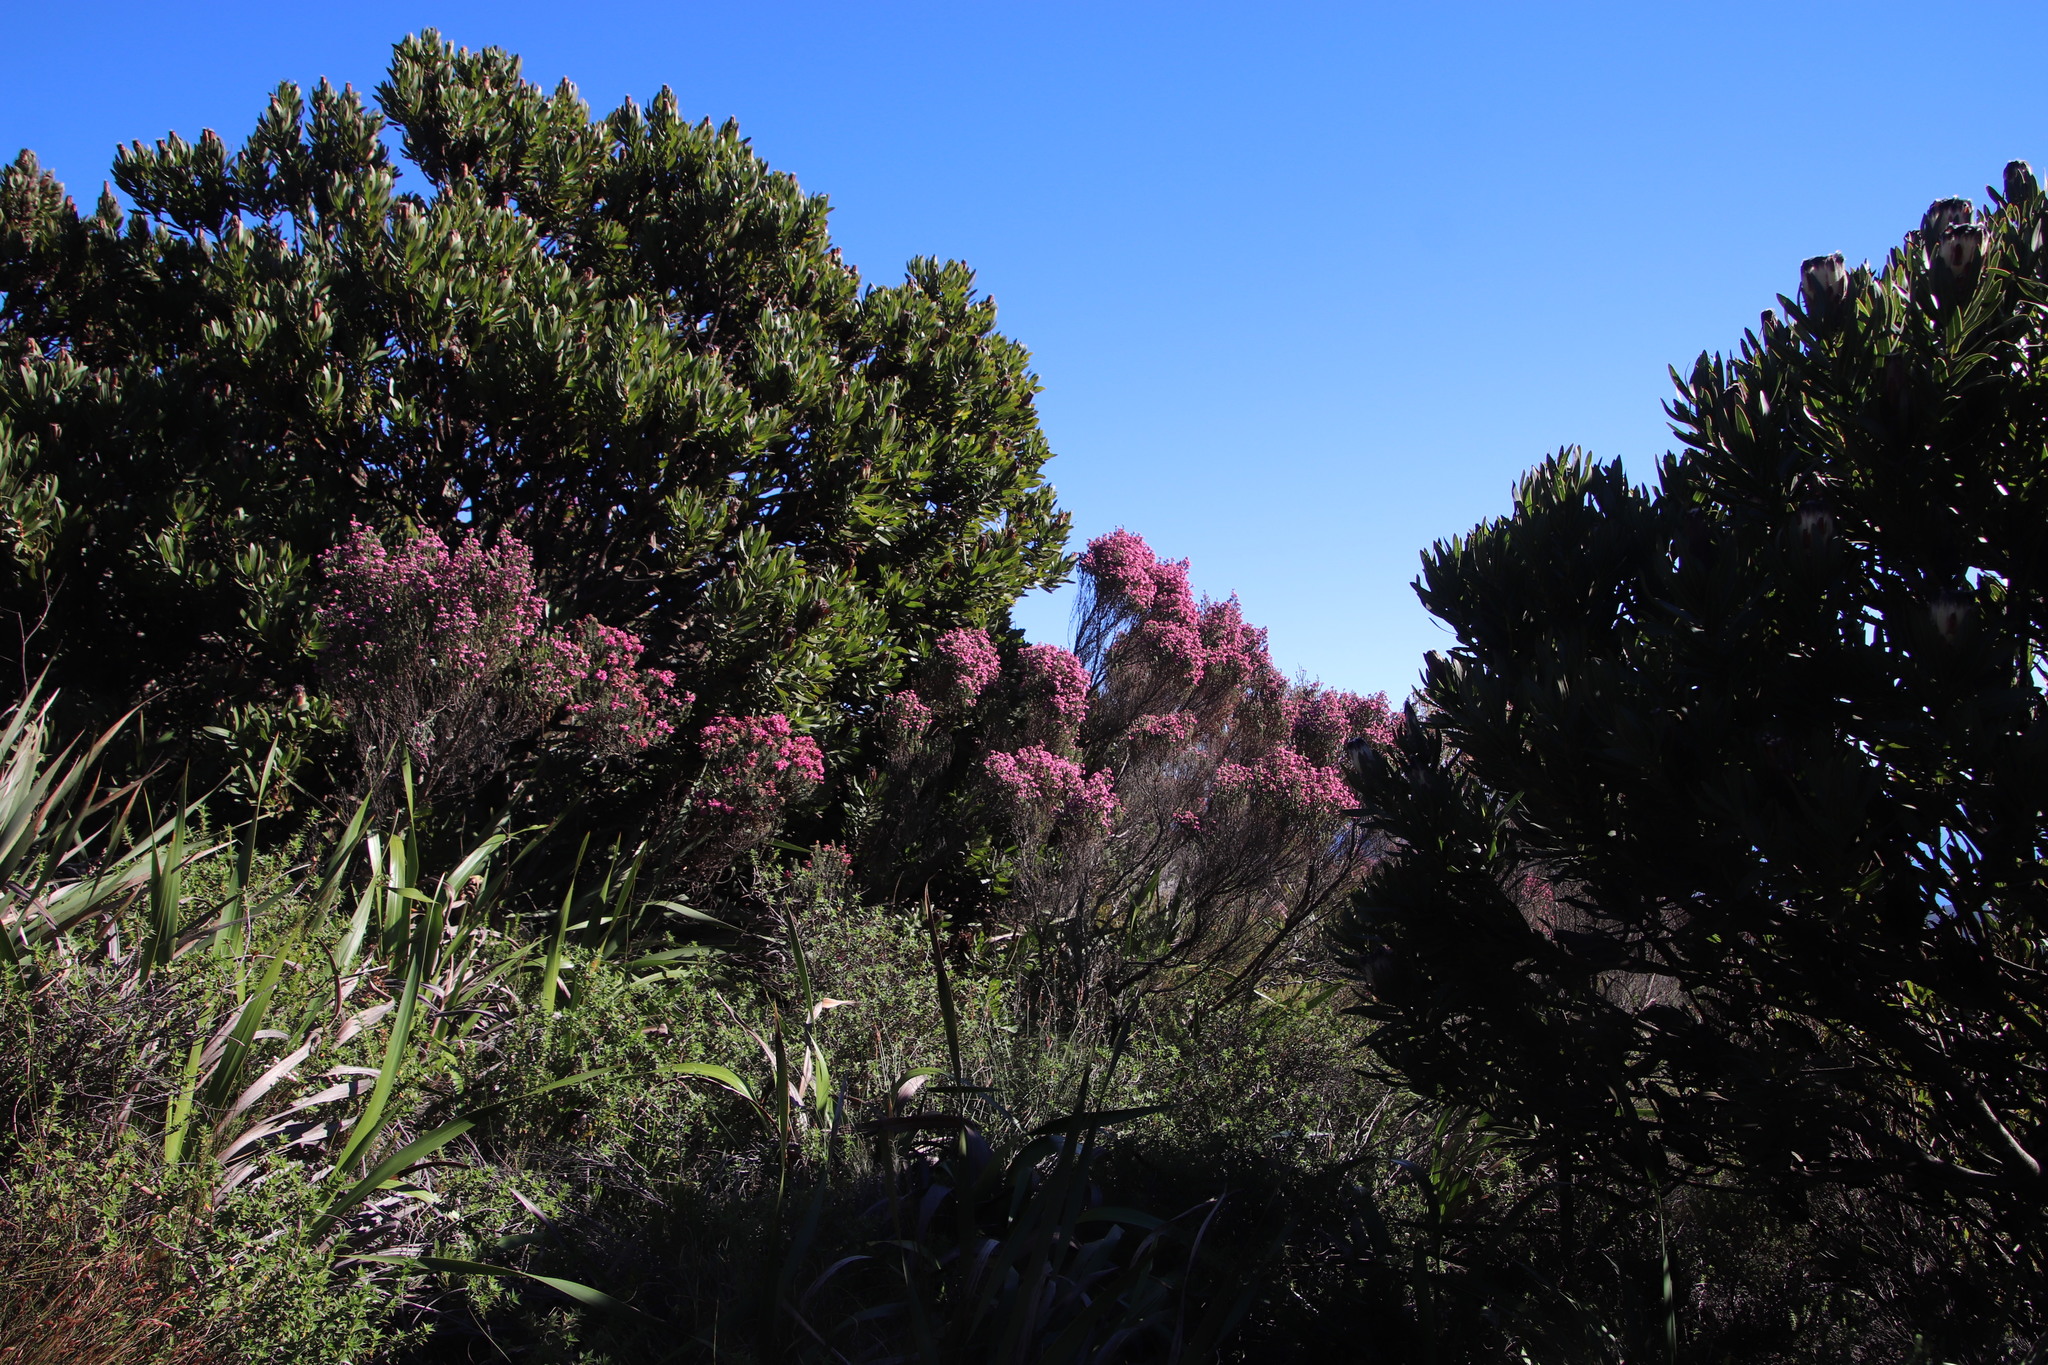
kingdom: Plantae
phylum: Tracheophyta
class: Magnoliopsida
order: Ericales
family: Ericaceae
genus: Erica
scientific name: Erica baccans
